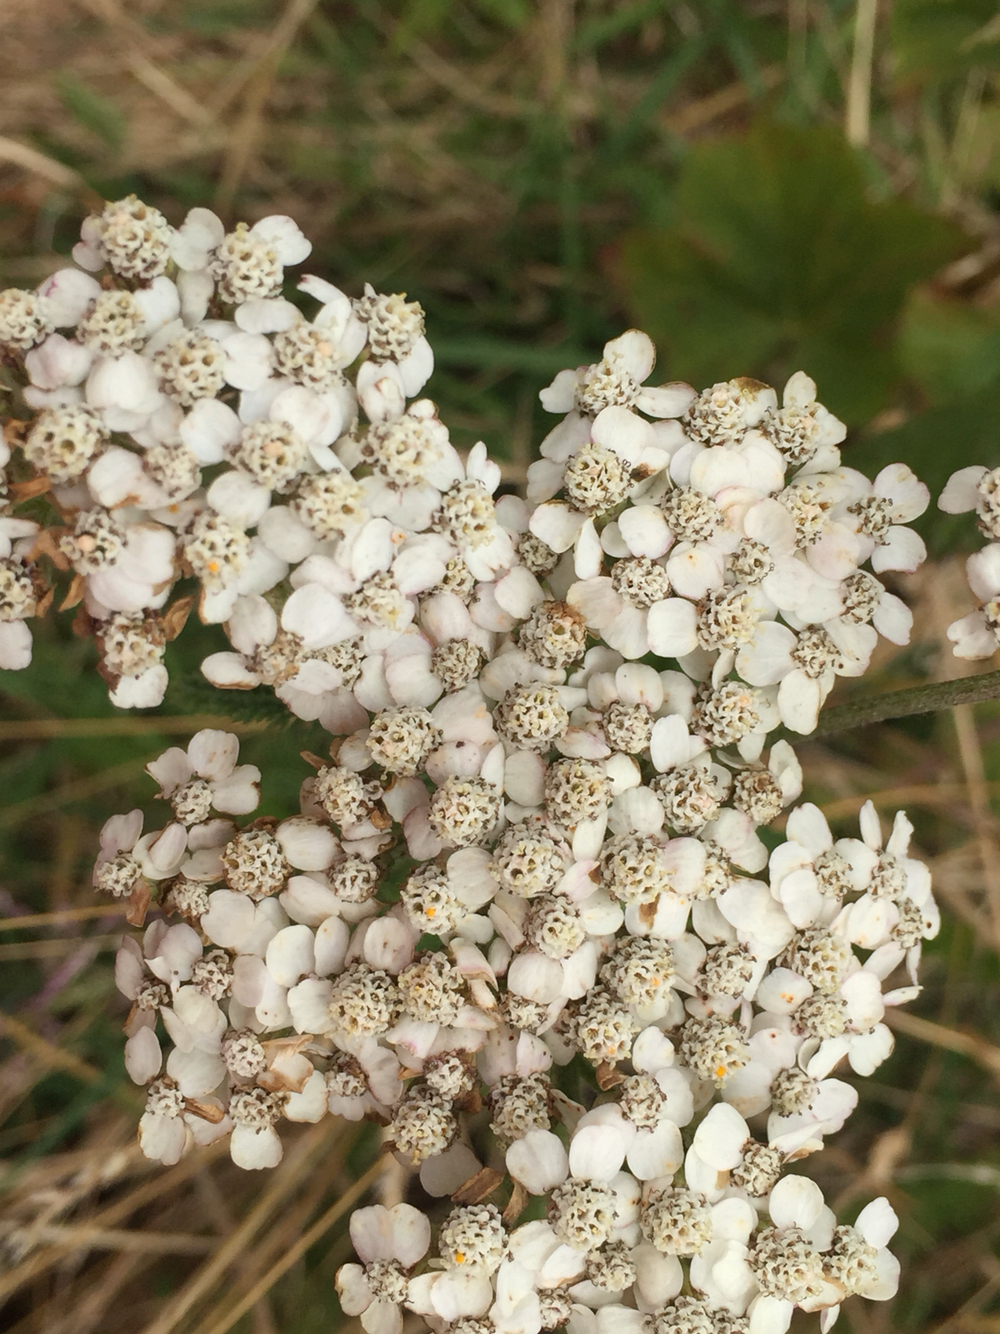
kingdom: Plantae
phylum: Tracheophyta
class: Magnoliopsida
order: Asterales
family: Asteraceae
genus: Achillea
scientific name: Achillea millefolium
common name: Yarrow
